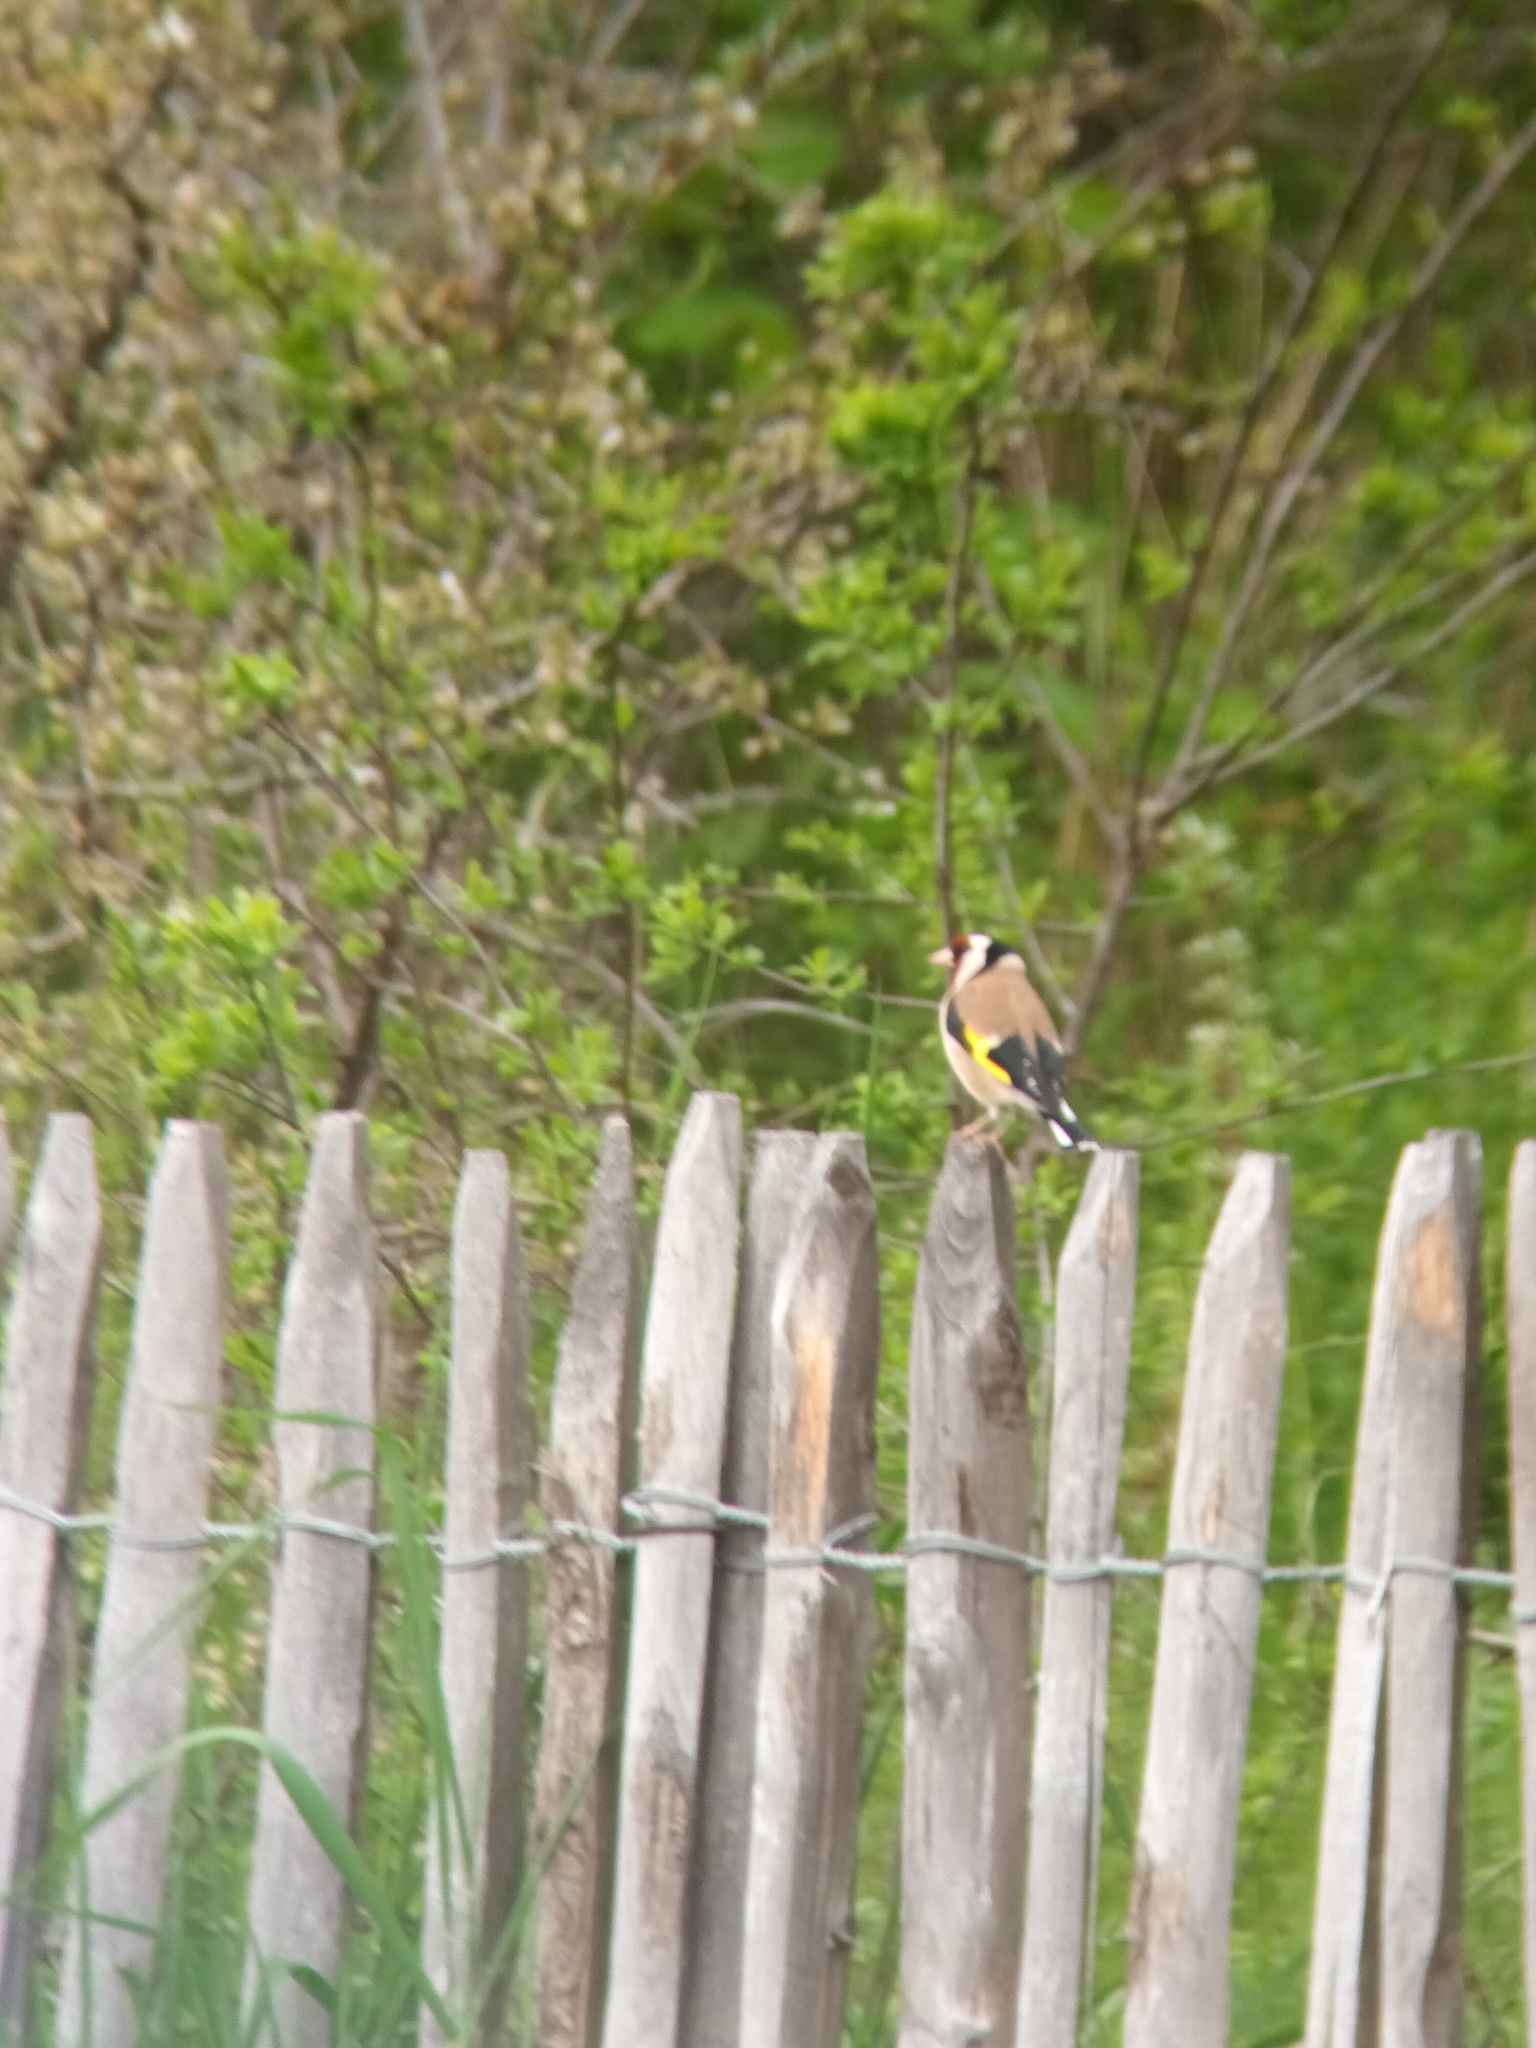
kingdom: Animalia
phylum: Chordata
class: Aves
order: Passeriformes
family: Fringillidae
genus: Carduelis
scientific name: Carduelis carduelis
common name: European goldfinch
